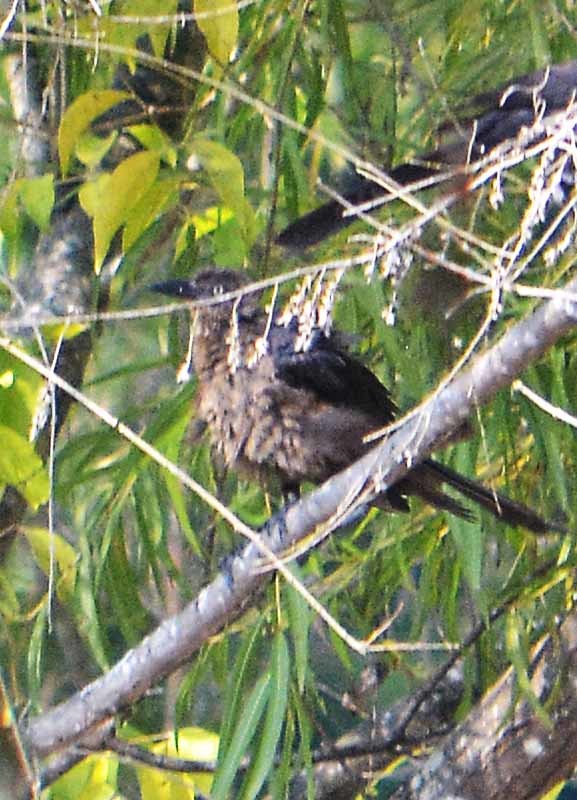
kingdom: Animalia
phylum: Chordata
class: Aves
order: Passeriformes
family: Icteridae
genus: Quiscalus
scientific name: Quiscalus mexicanus
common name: Great-tailed grackle
